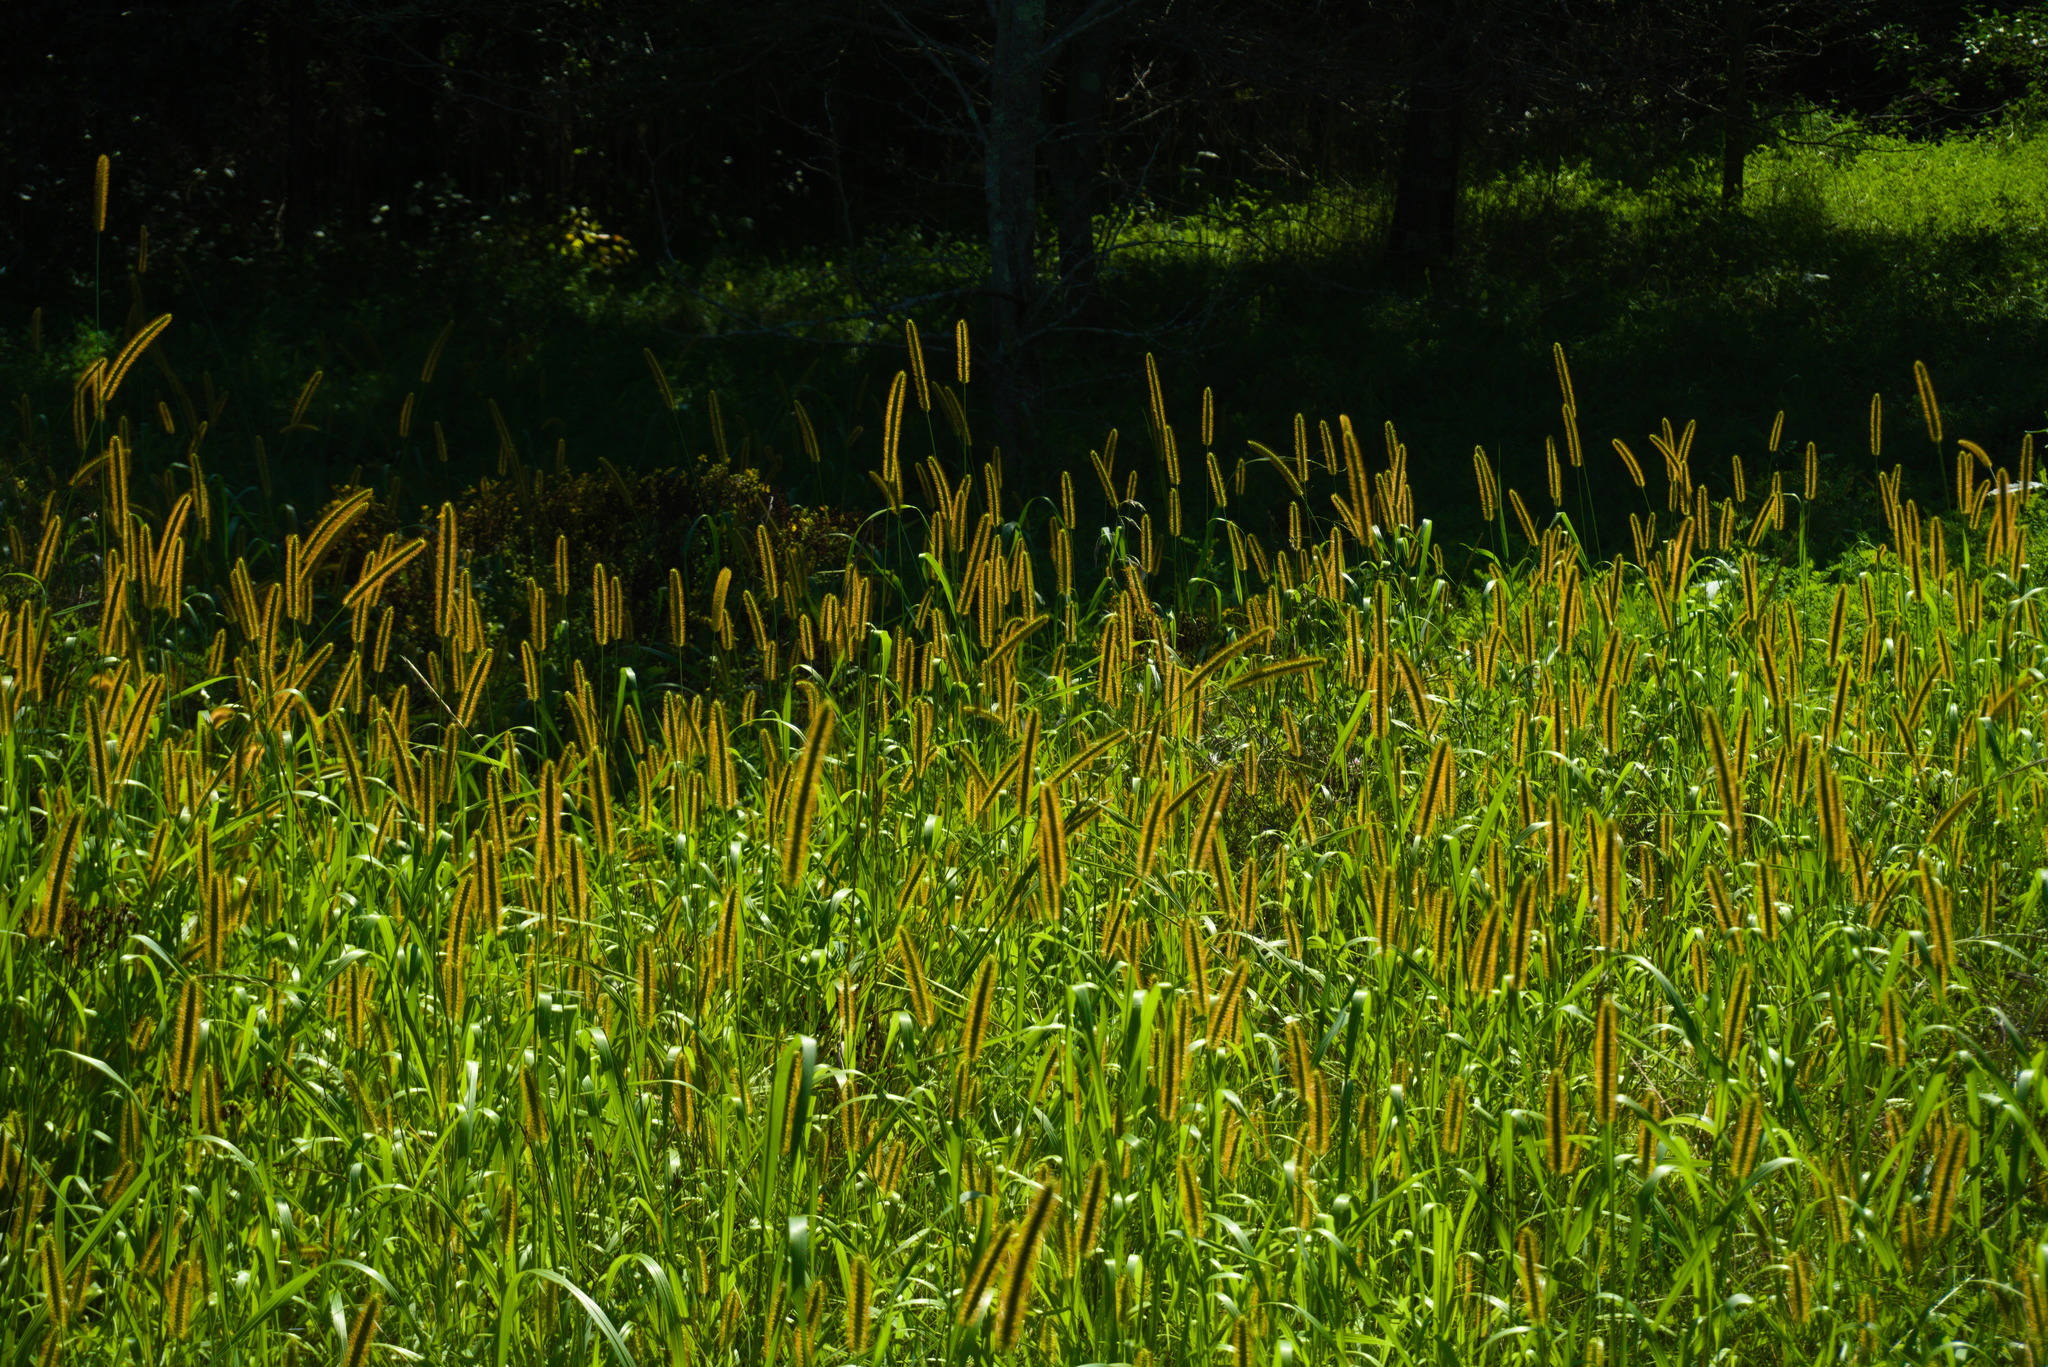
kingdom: Plantae
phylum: Tracheophyta
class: Liliopsida
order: Poales
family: Poaceae
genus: Setaria
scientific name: Setaria pumila
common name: Yellow bristle-grass
